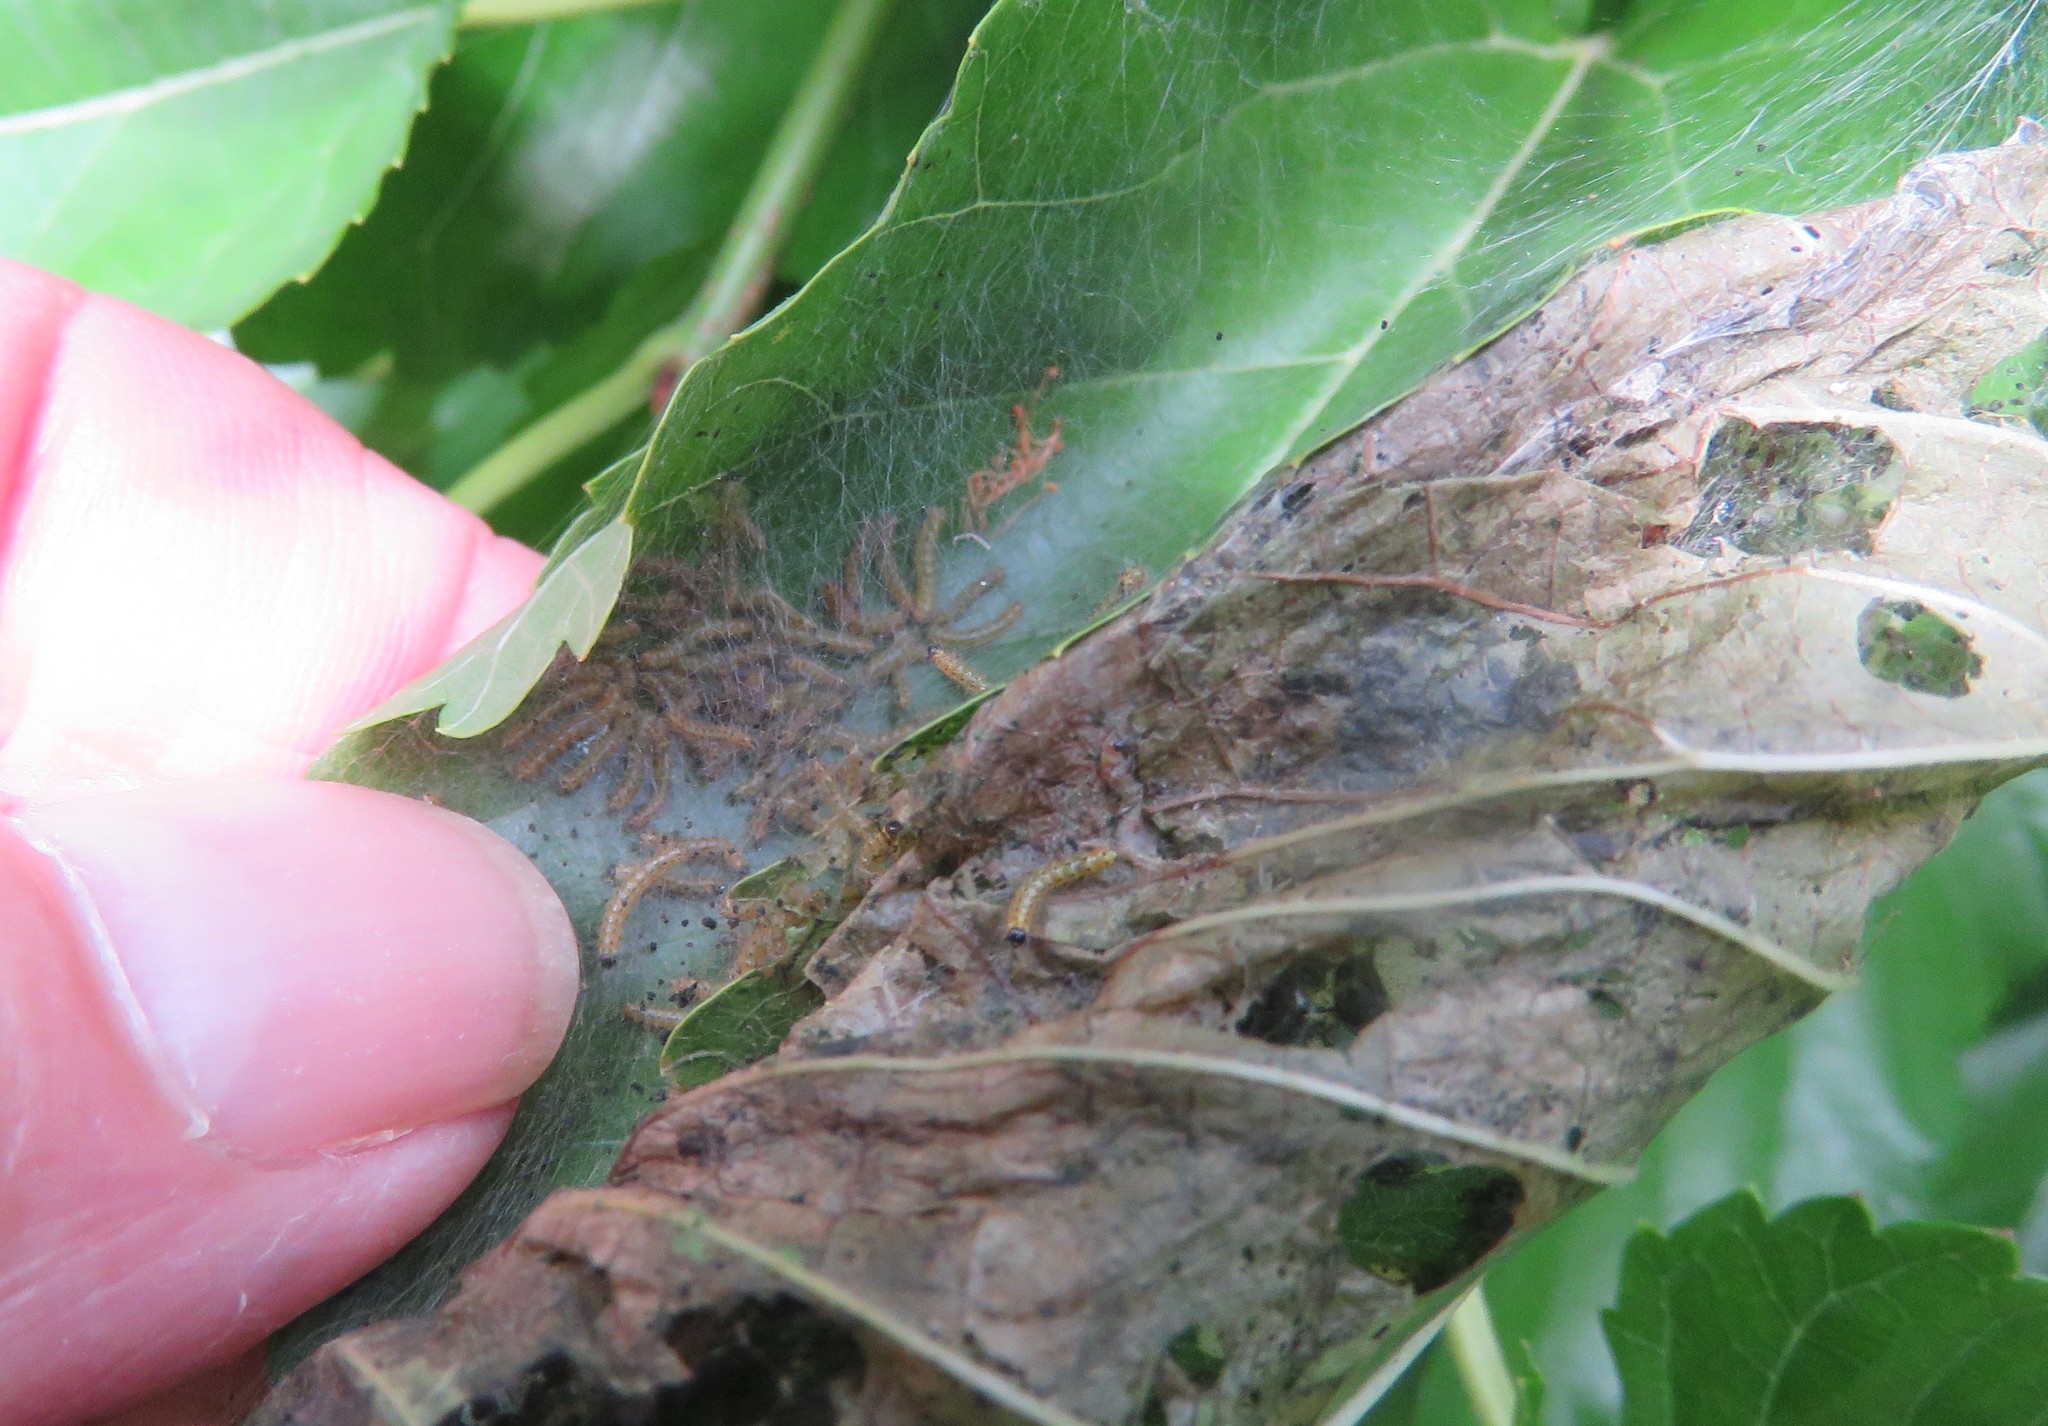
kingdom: Animalia
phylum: Arthropoda
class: Insecta
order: Lepidoptera
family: Tortricidae
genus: Archips
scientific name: Archips cerasivorana
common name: Uglynest caterpillar
